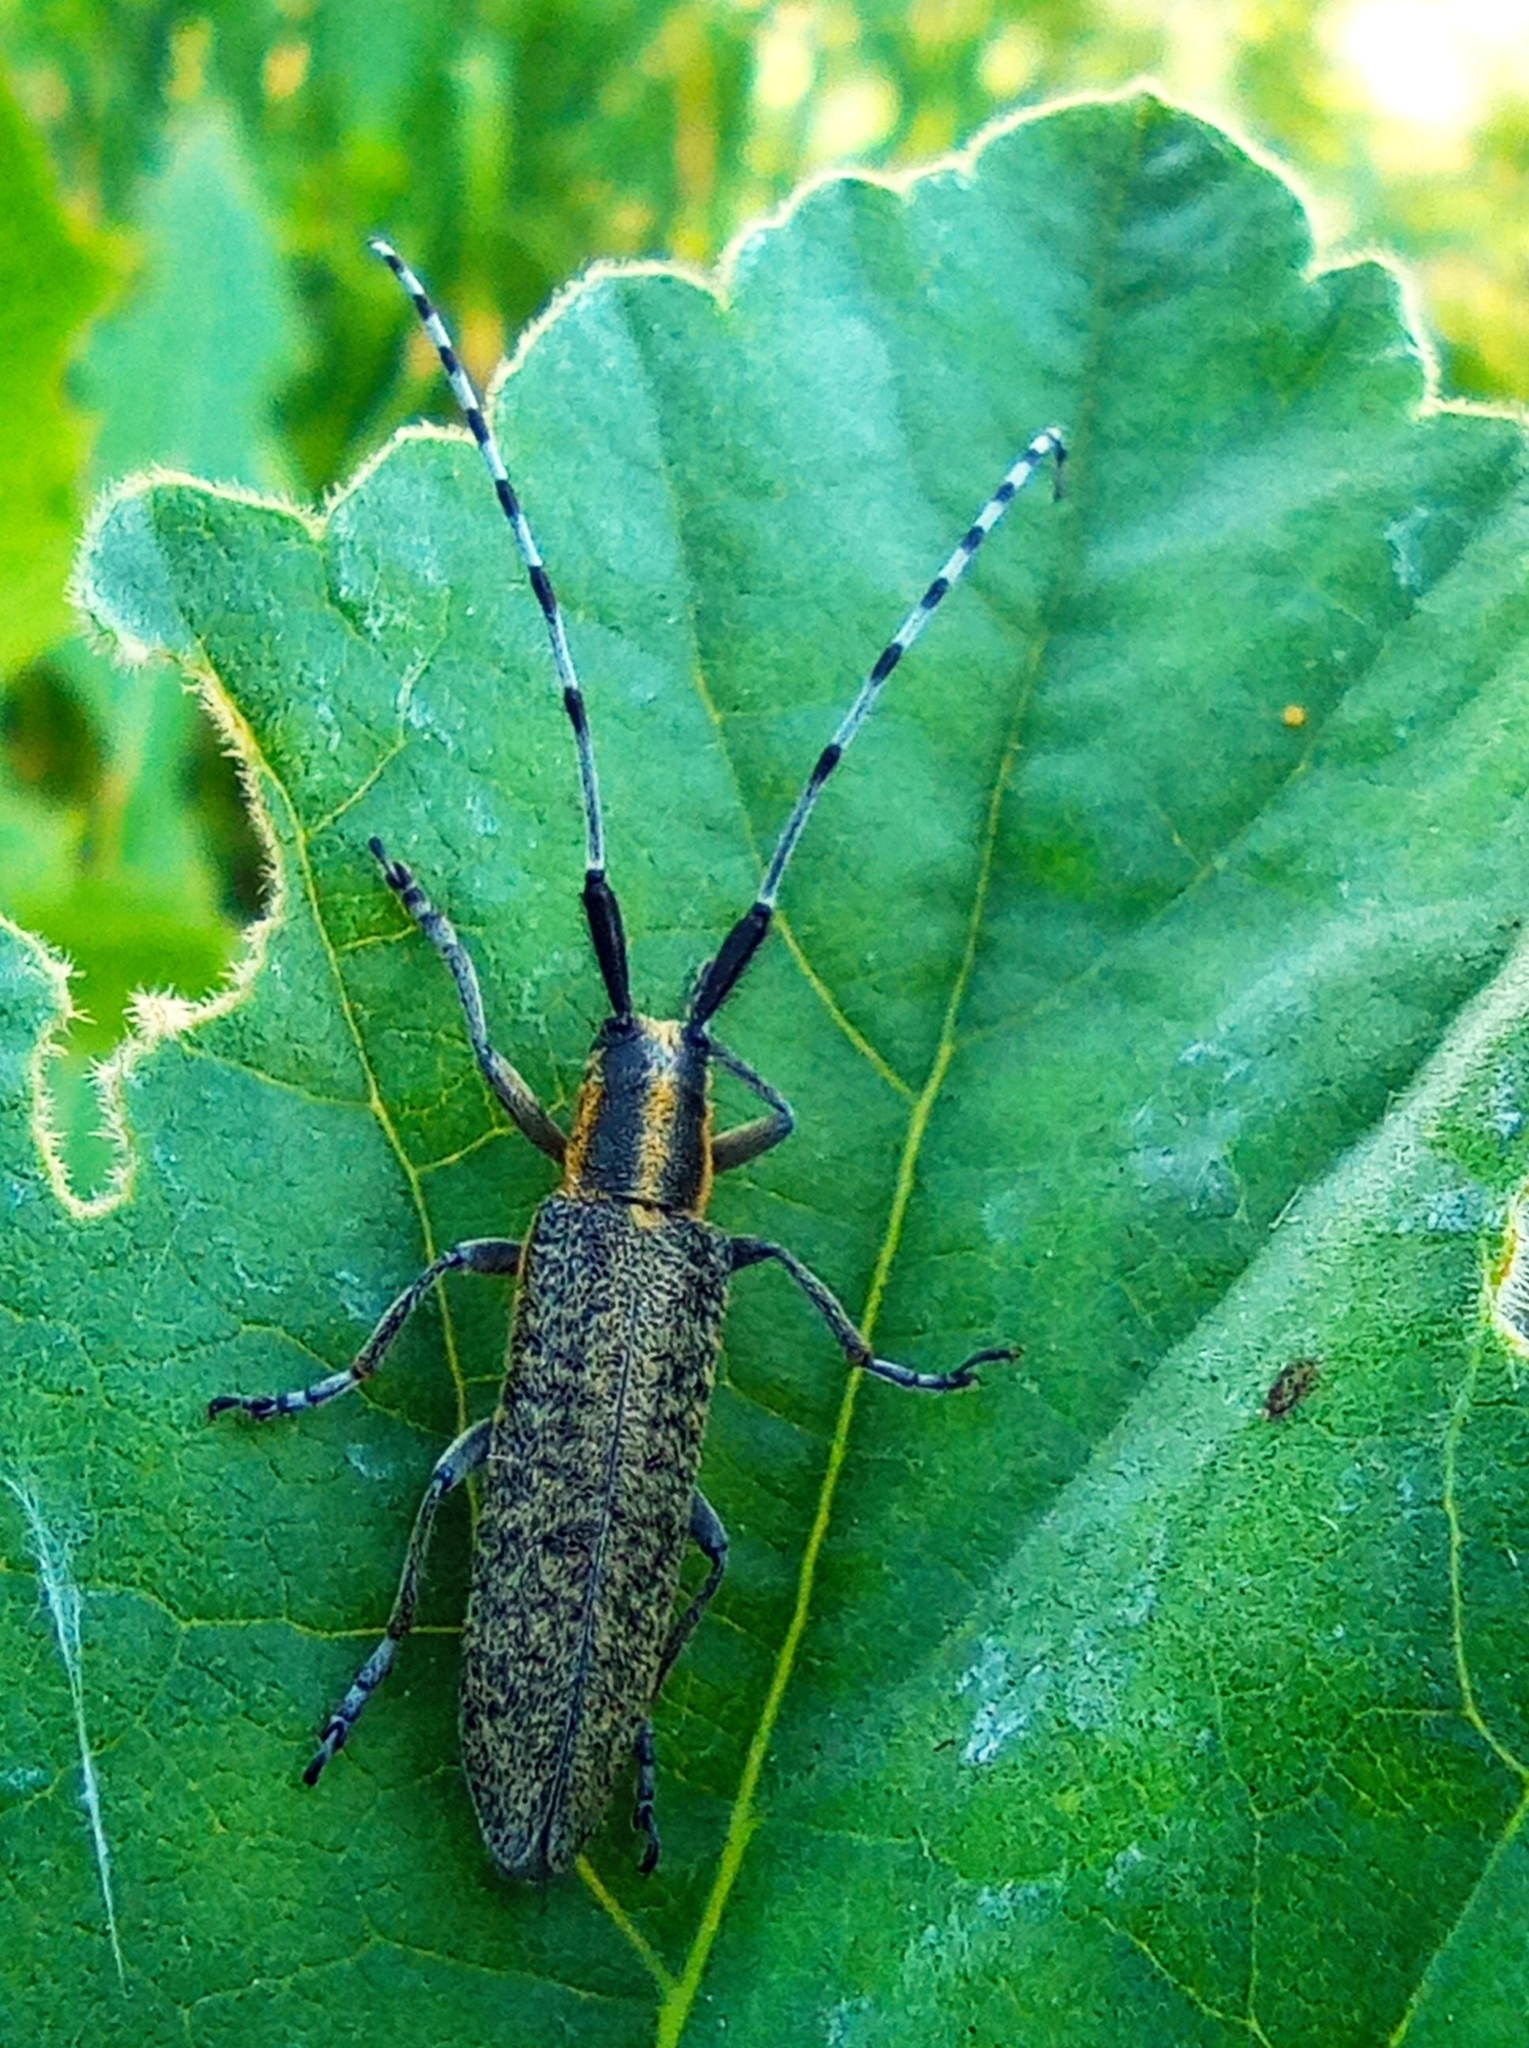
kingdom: Animalia
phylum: Arthropoda
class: Insecta
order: Coleoptera
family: Cerambycidae
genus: Agapanthia
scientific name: Agapanthia villosoviridescens
